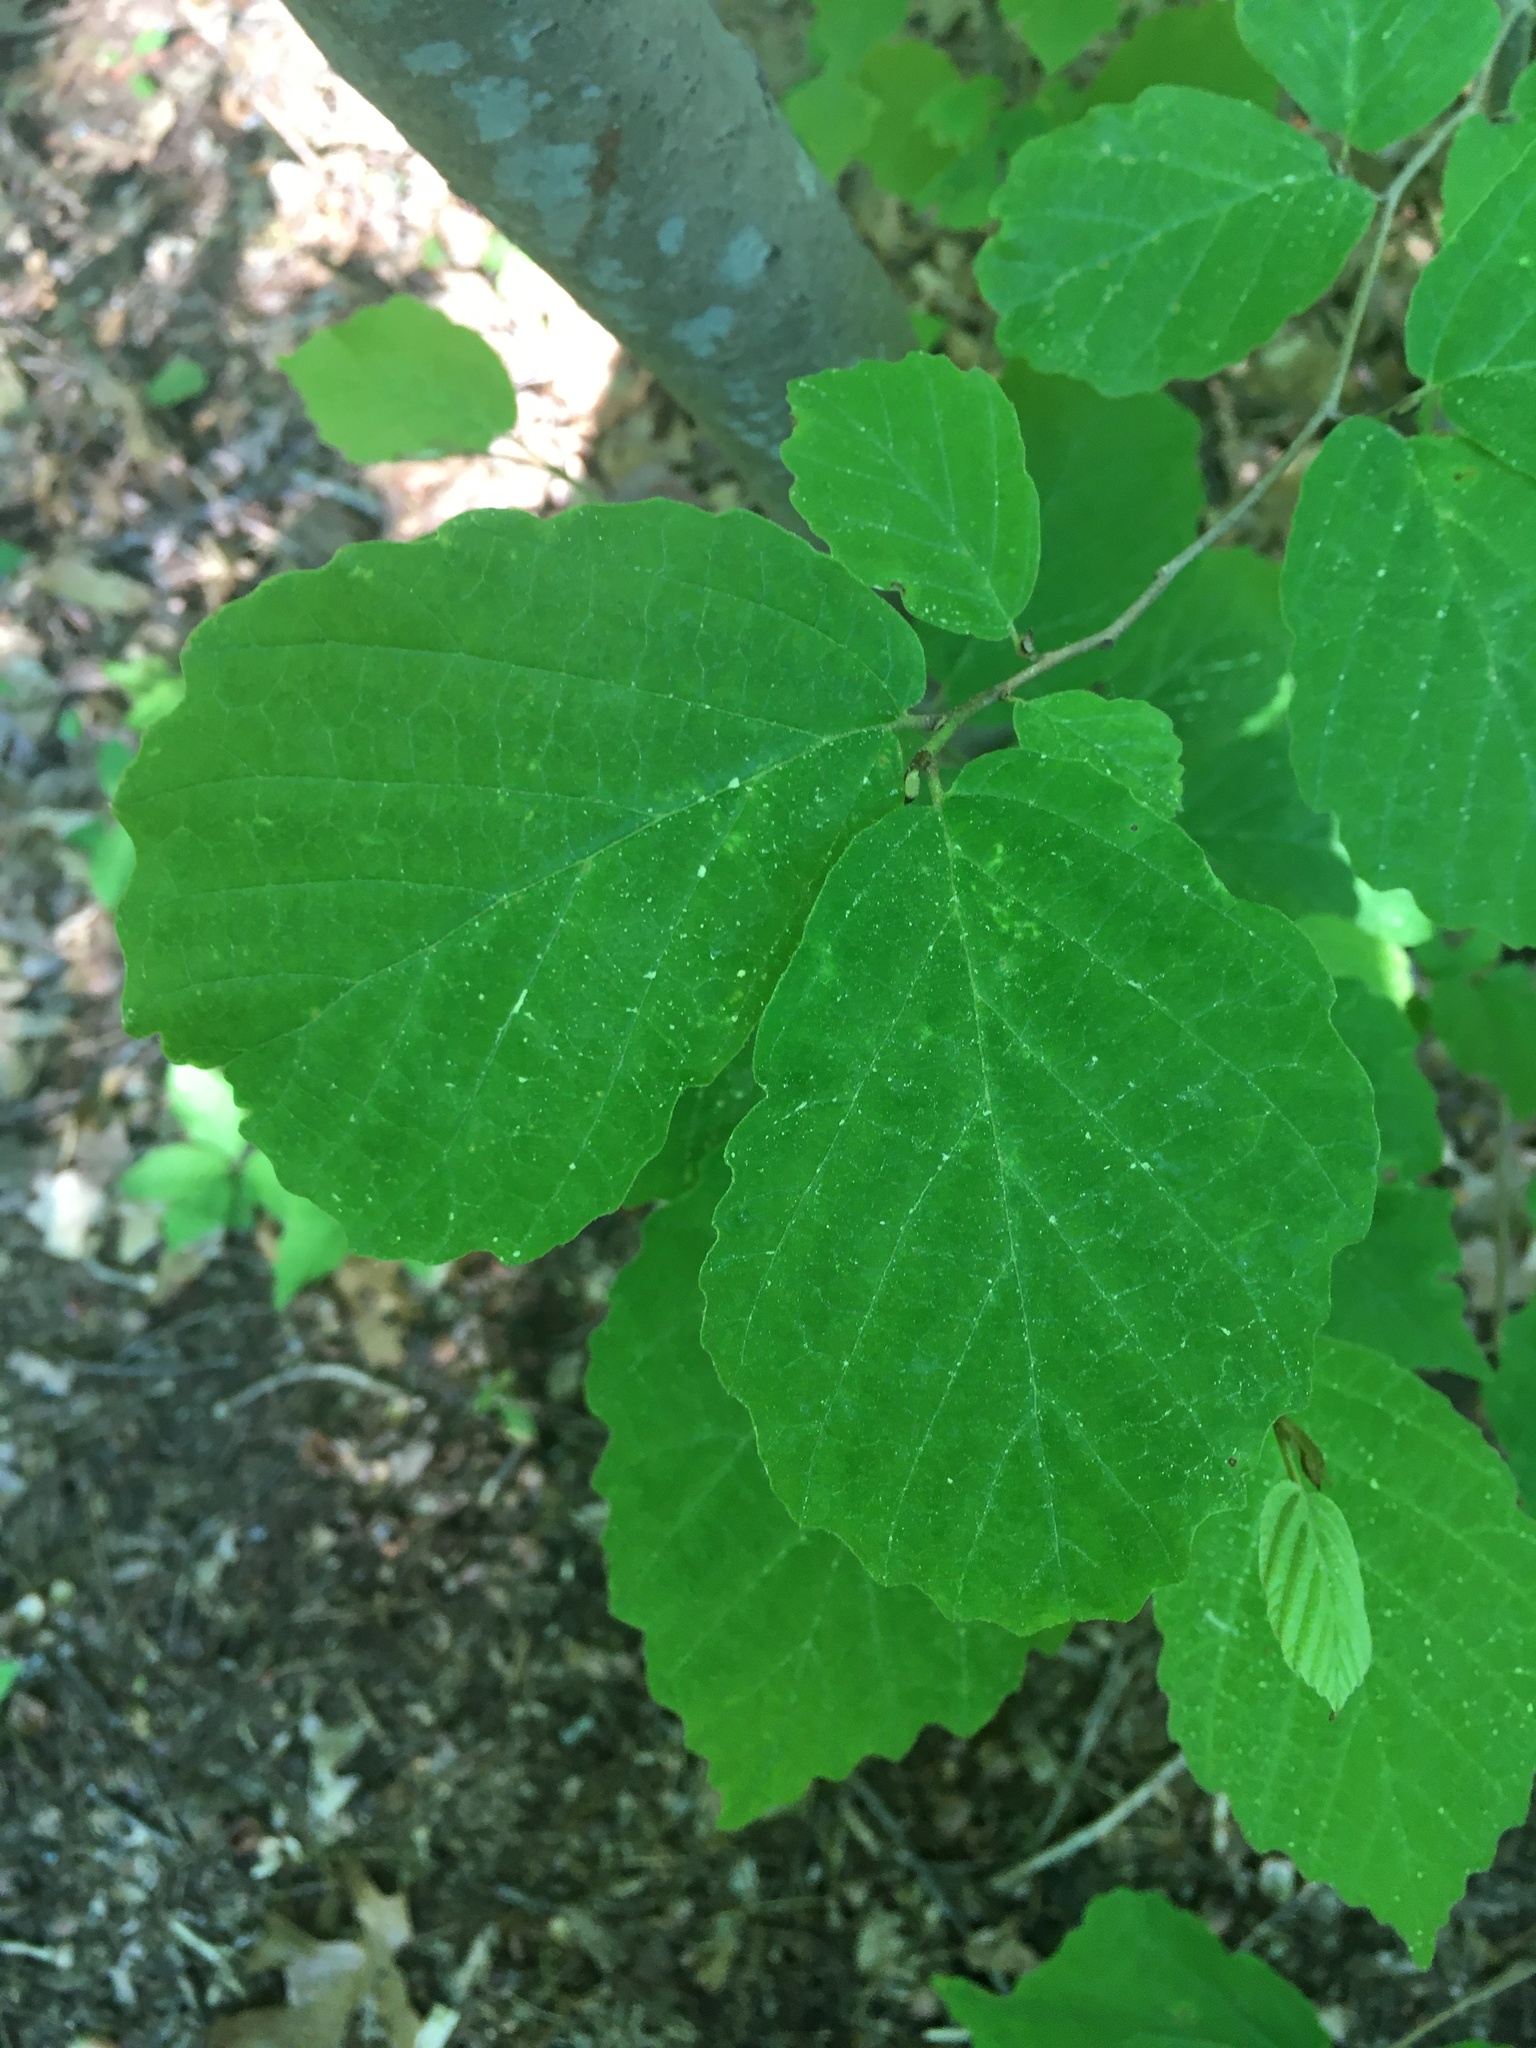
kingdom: Plantae
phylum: Tracheophyta
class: Magnoliopsida
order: Saxifragales
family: Hamamelidaceae
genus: Hamamelis
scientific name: Hamamelis virginiana
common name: Witch-hazel
